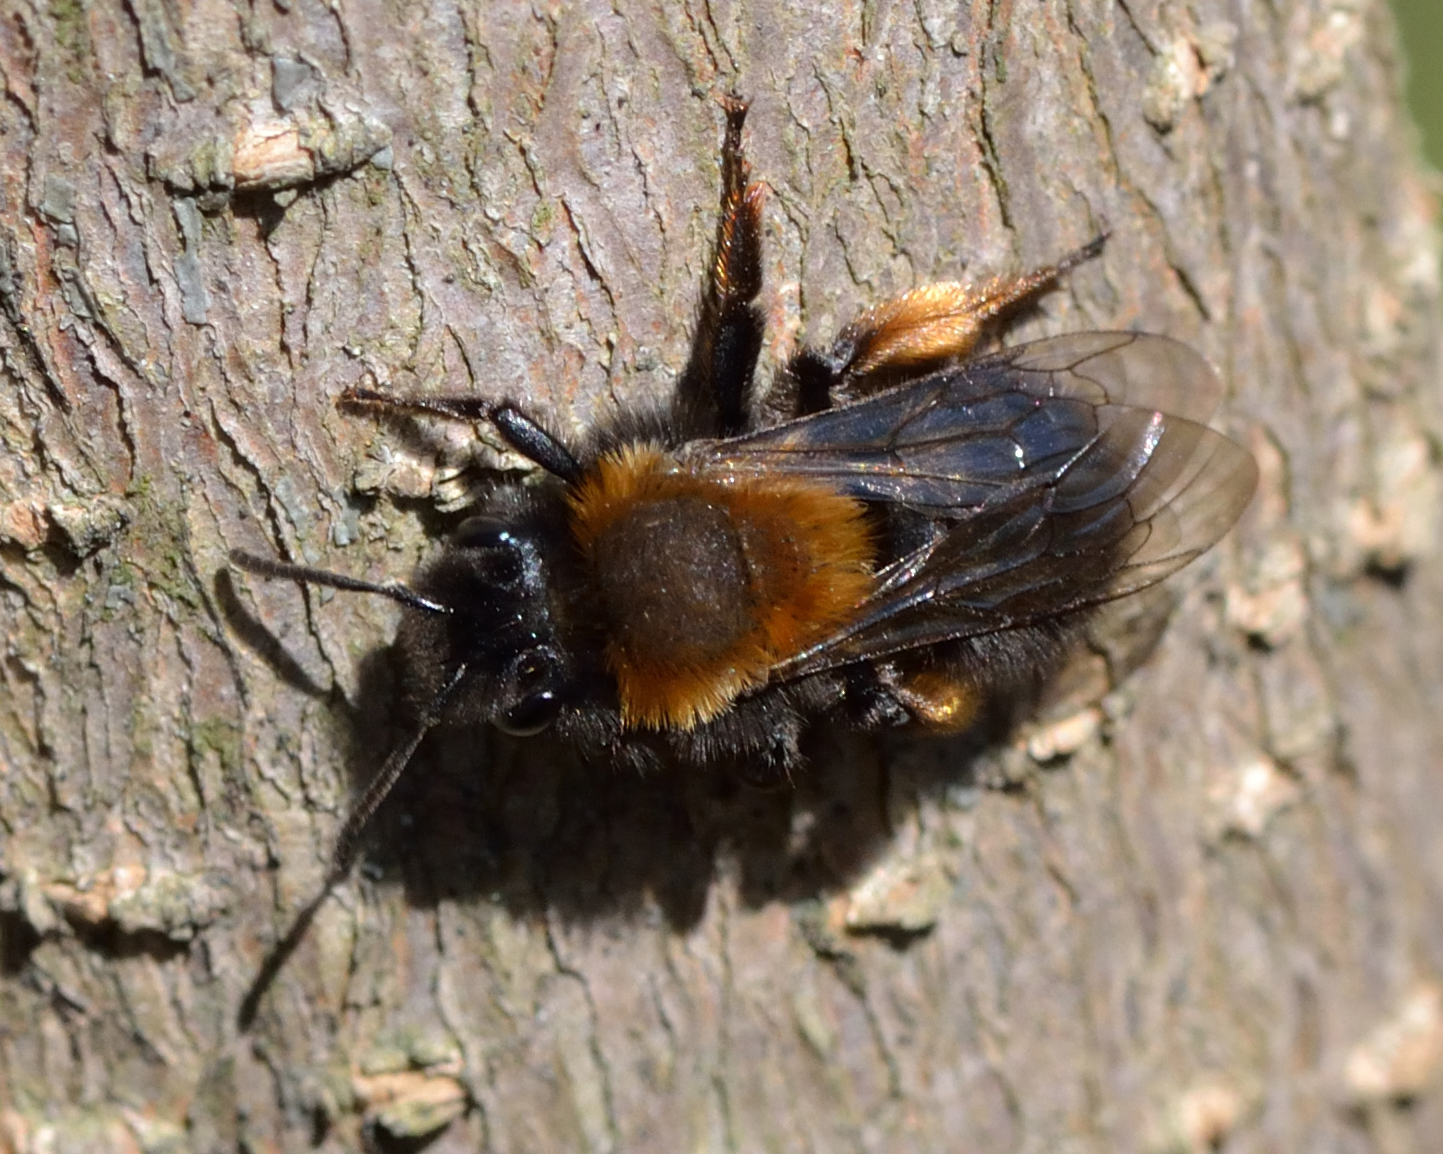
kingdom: Animalia
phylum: Arthropoda
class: Insecta
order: Hymenoptera
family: Andrenidae
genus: Andrena
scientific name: Andrena clarkella
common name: Clarke's mining bee
